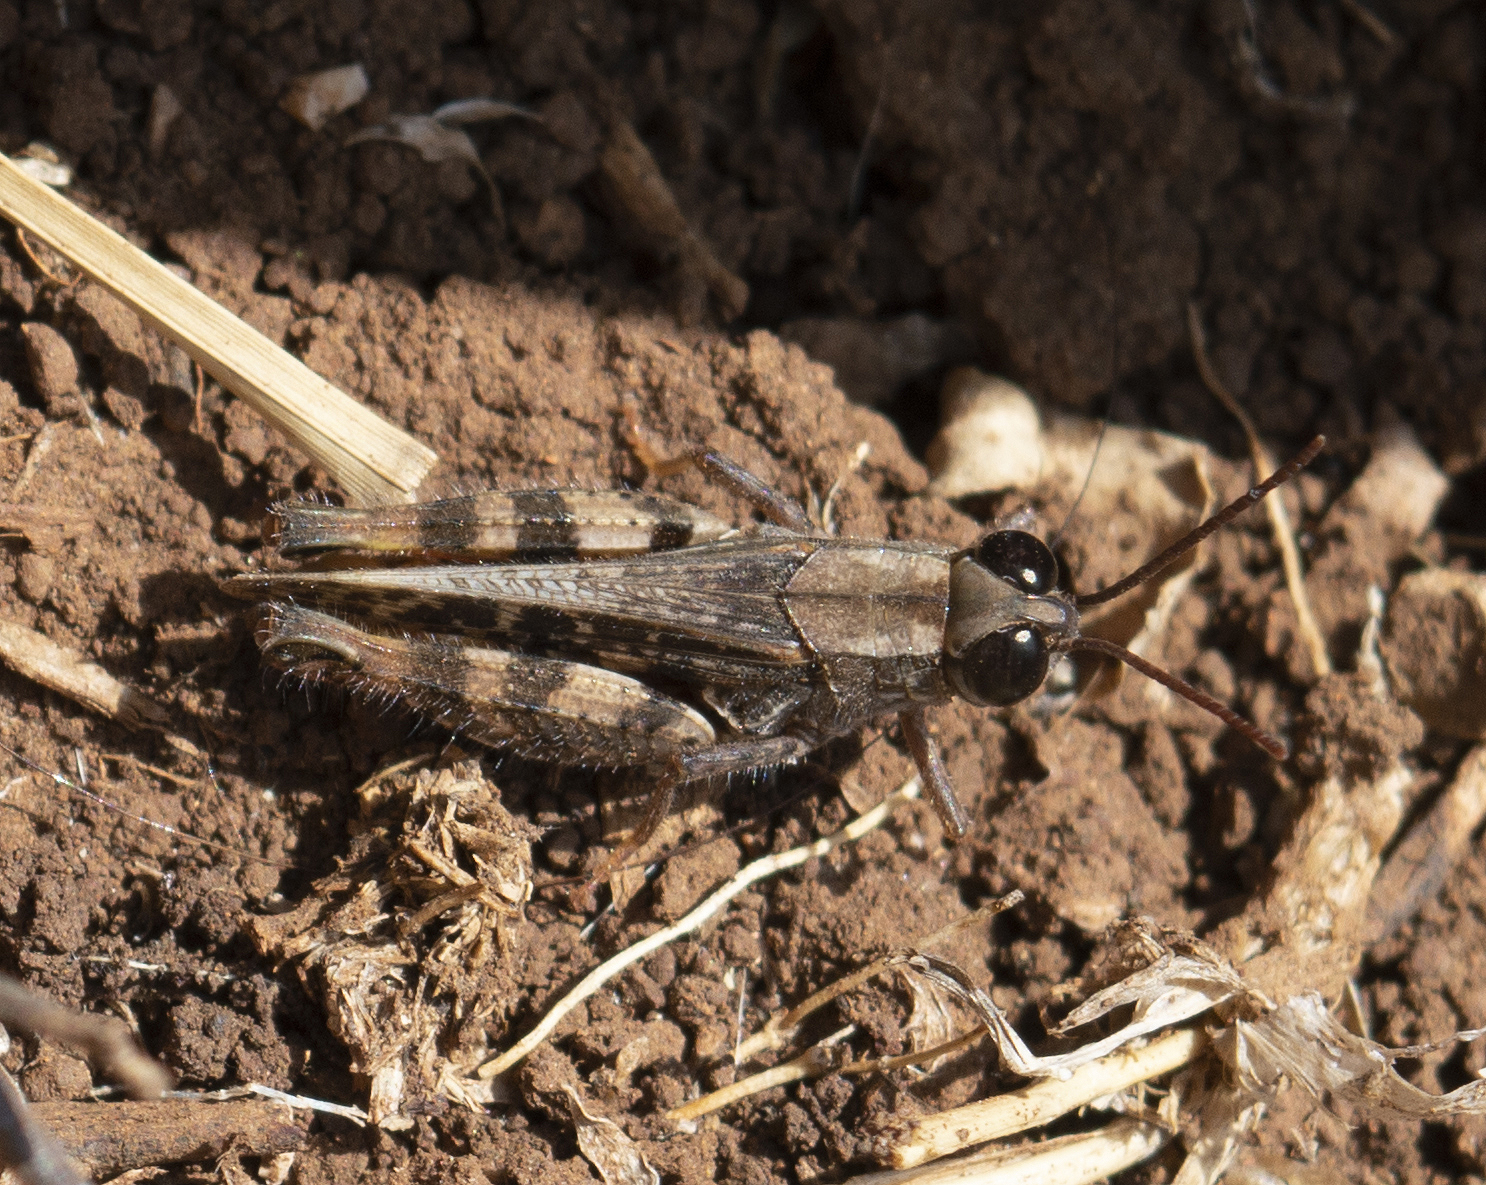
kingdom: Animalia
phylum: Arthropoda
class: Insecta
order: Orthoptera
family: Acrididae
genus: Calliptamus
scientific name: Calliptamus barbarus
